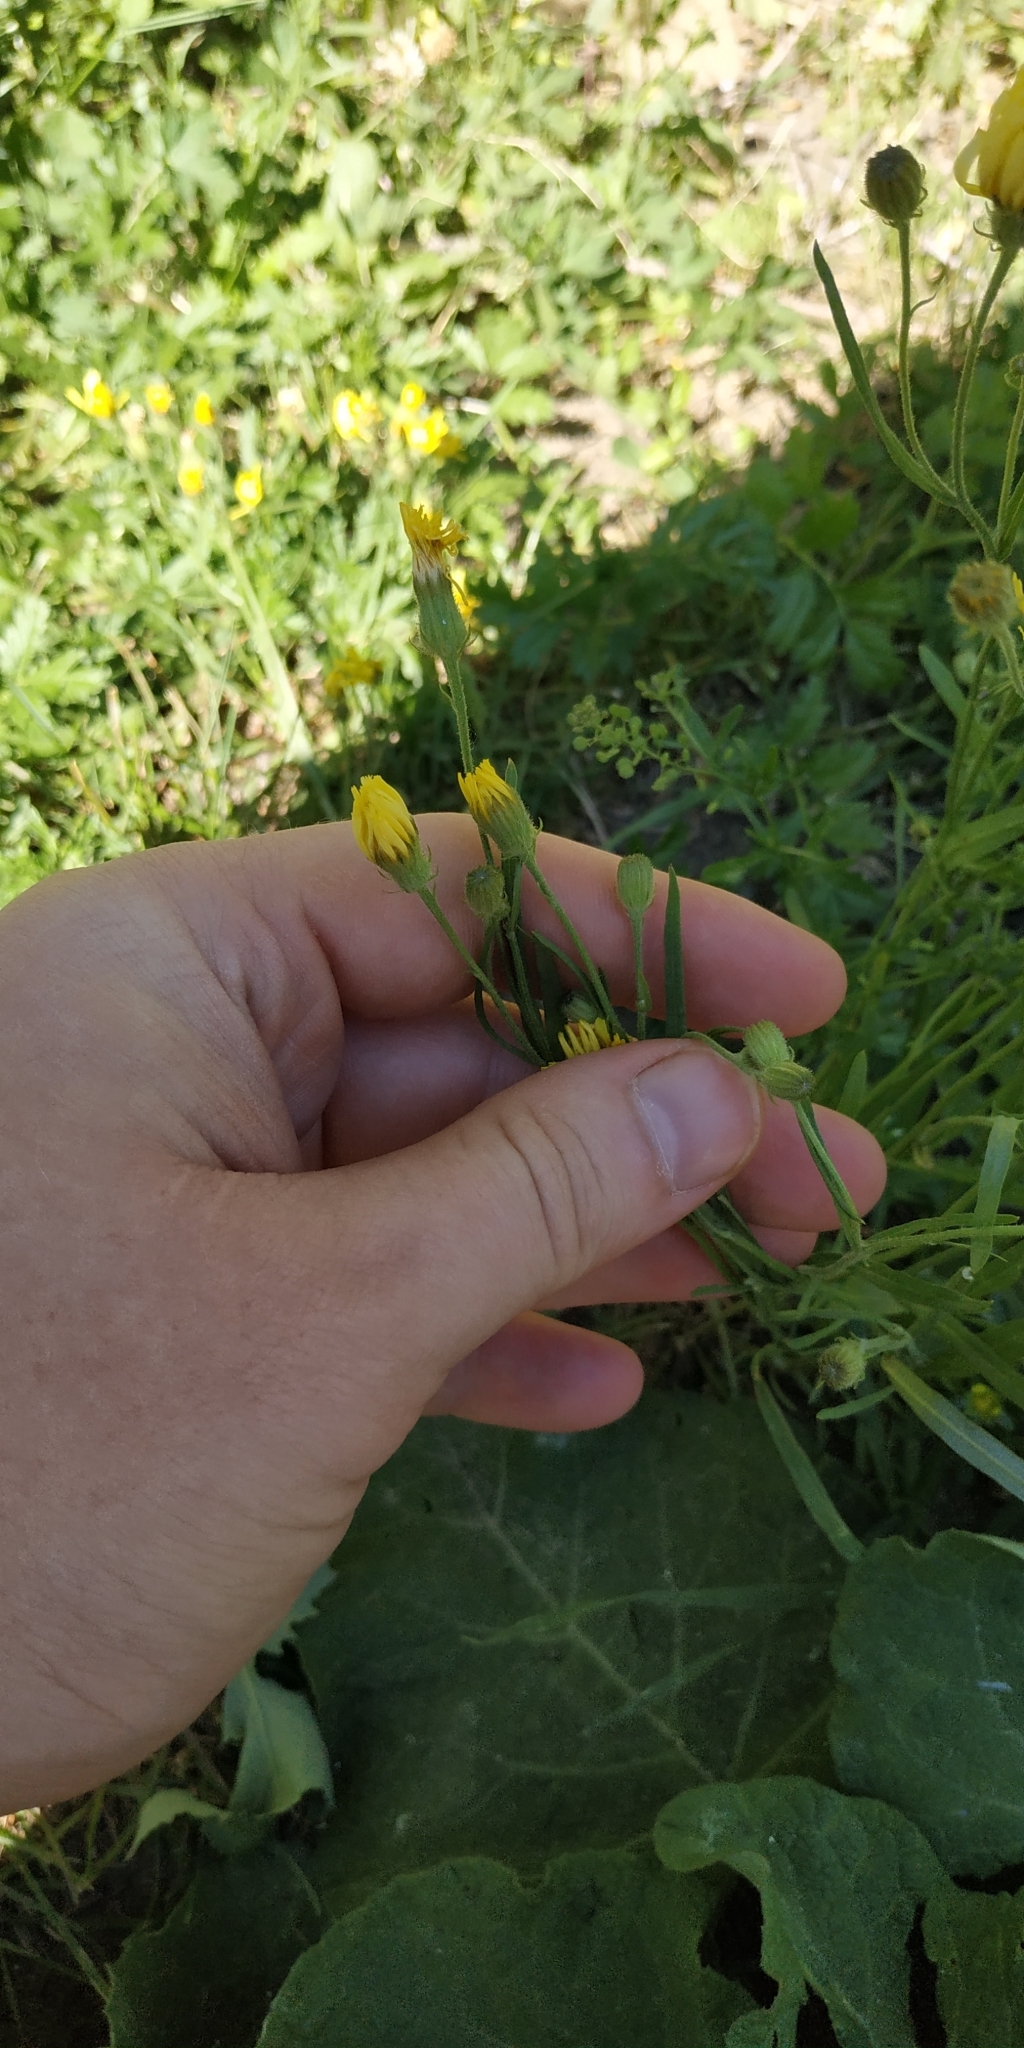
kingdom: Plantae
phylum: Tracheophyta
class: Magnoliopsida
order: Asterales
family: Asteraceae
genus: Crepis
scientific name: Crepis tectorum
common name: Narrow-leaved hawk's-beard
